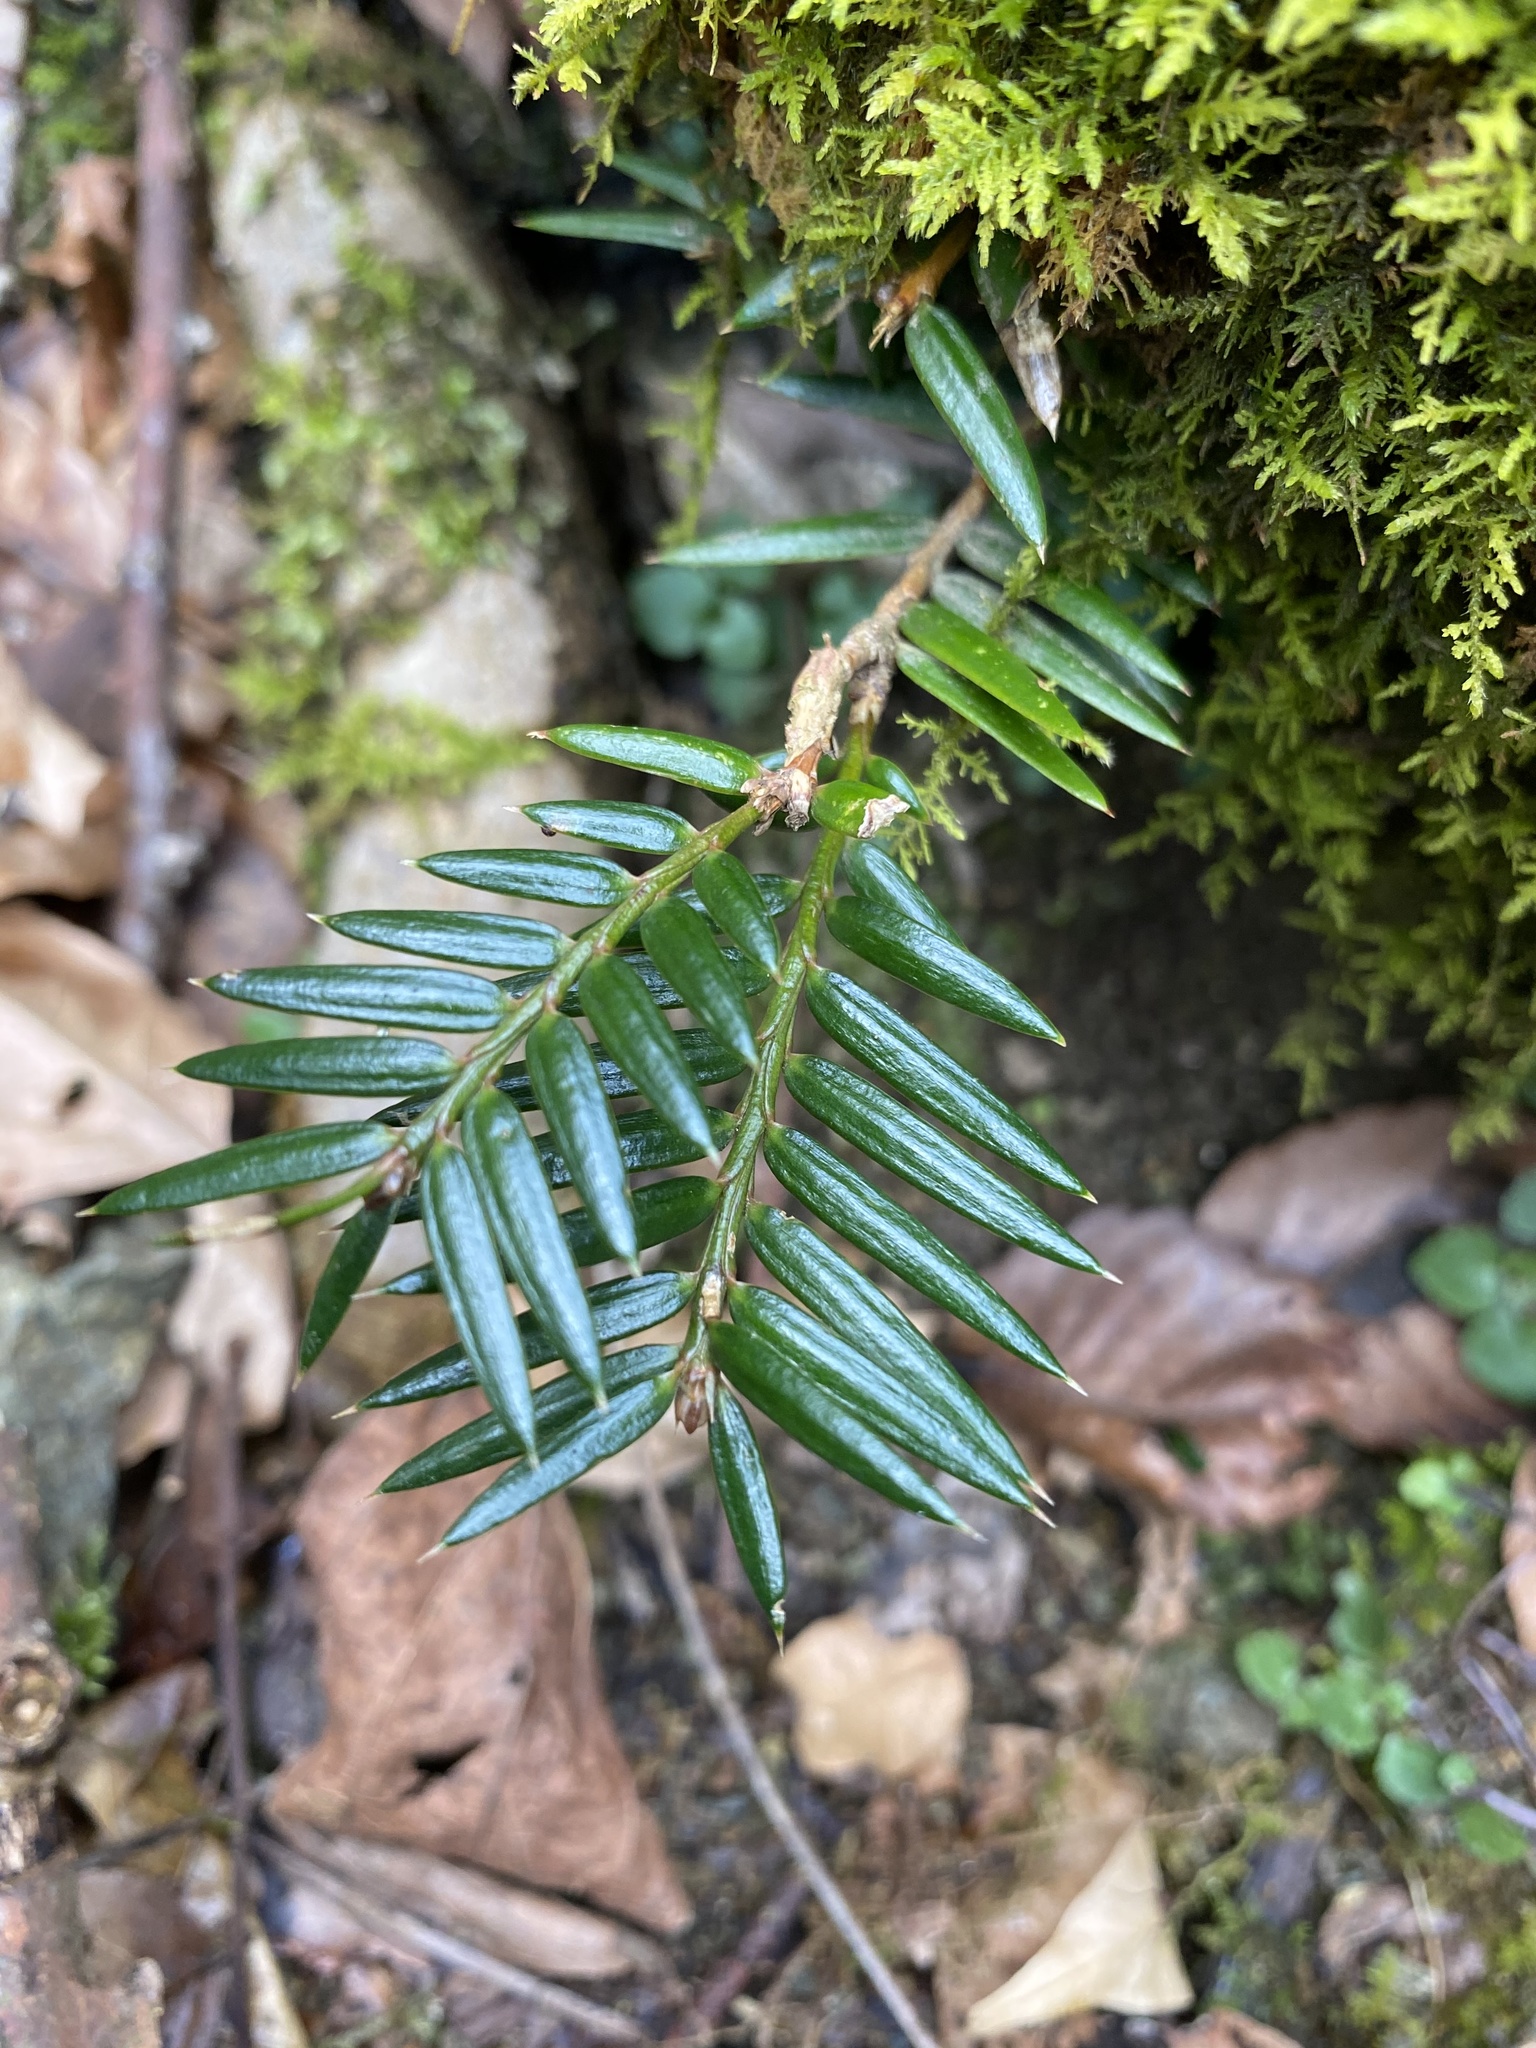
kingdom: Plantae
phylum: Tracheophyta
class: Pinopsida
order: Pinales
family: Taxaceae
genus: Torreya
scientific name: Torreya nucifera
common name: Japanese nutmeg tree
